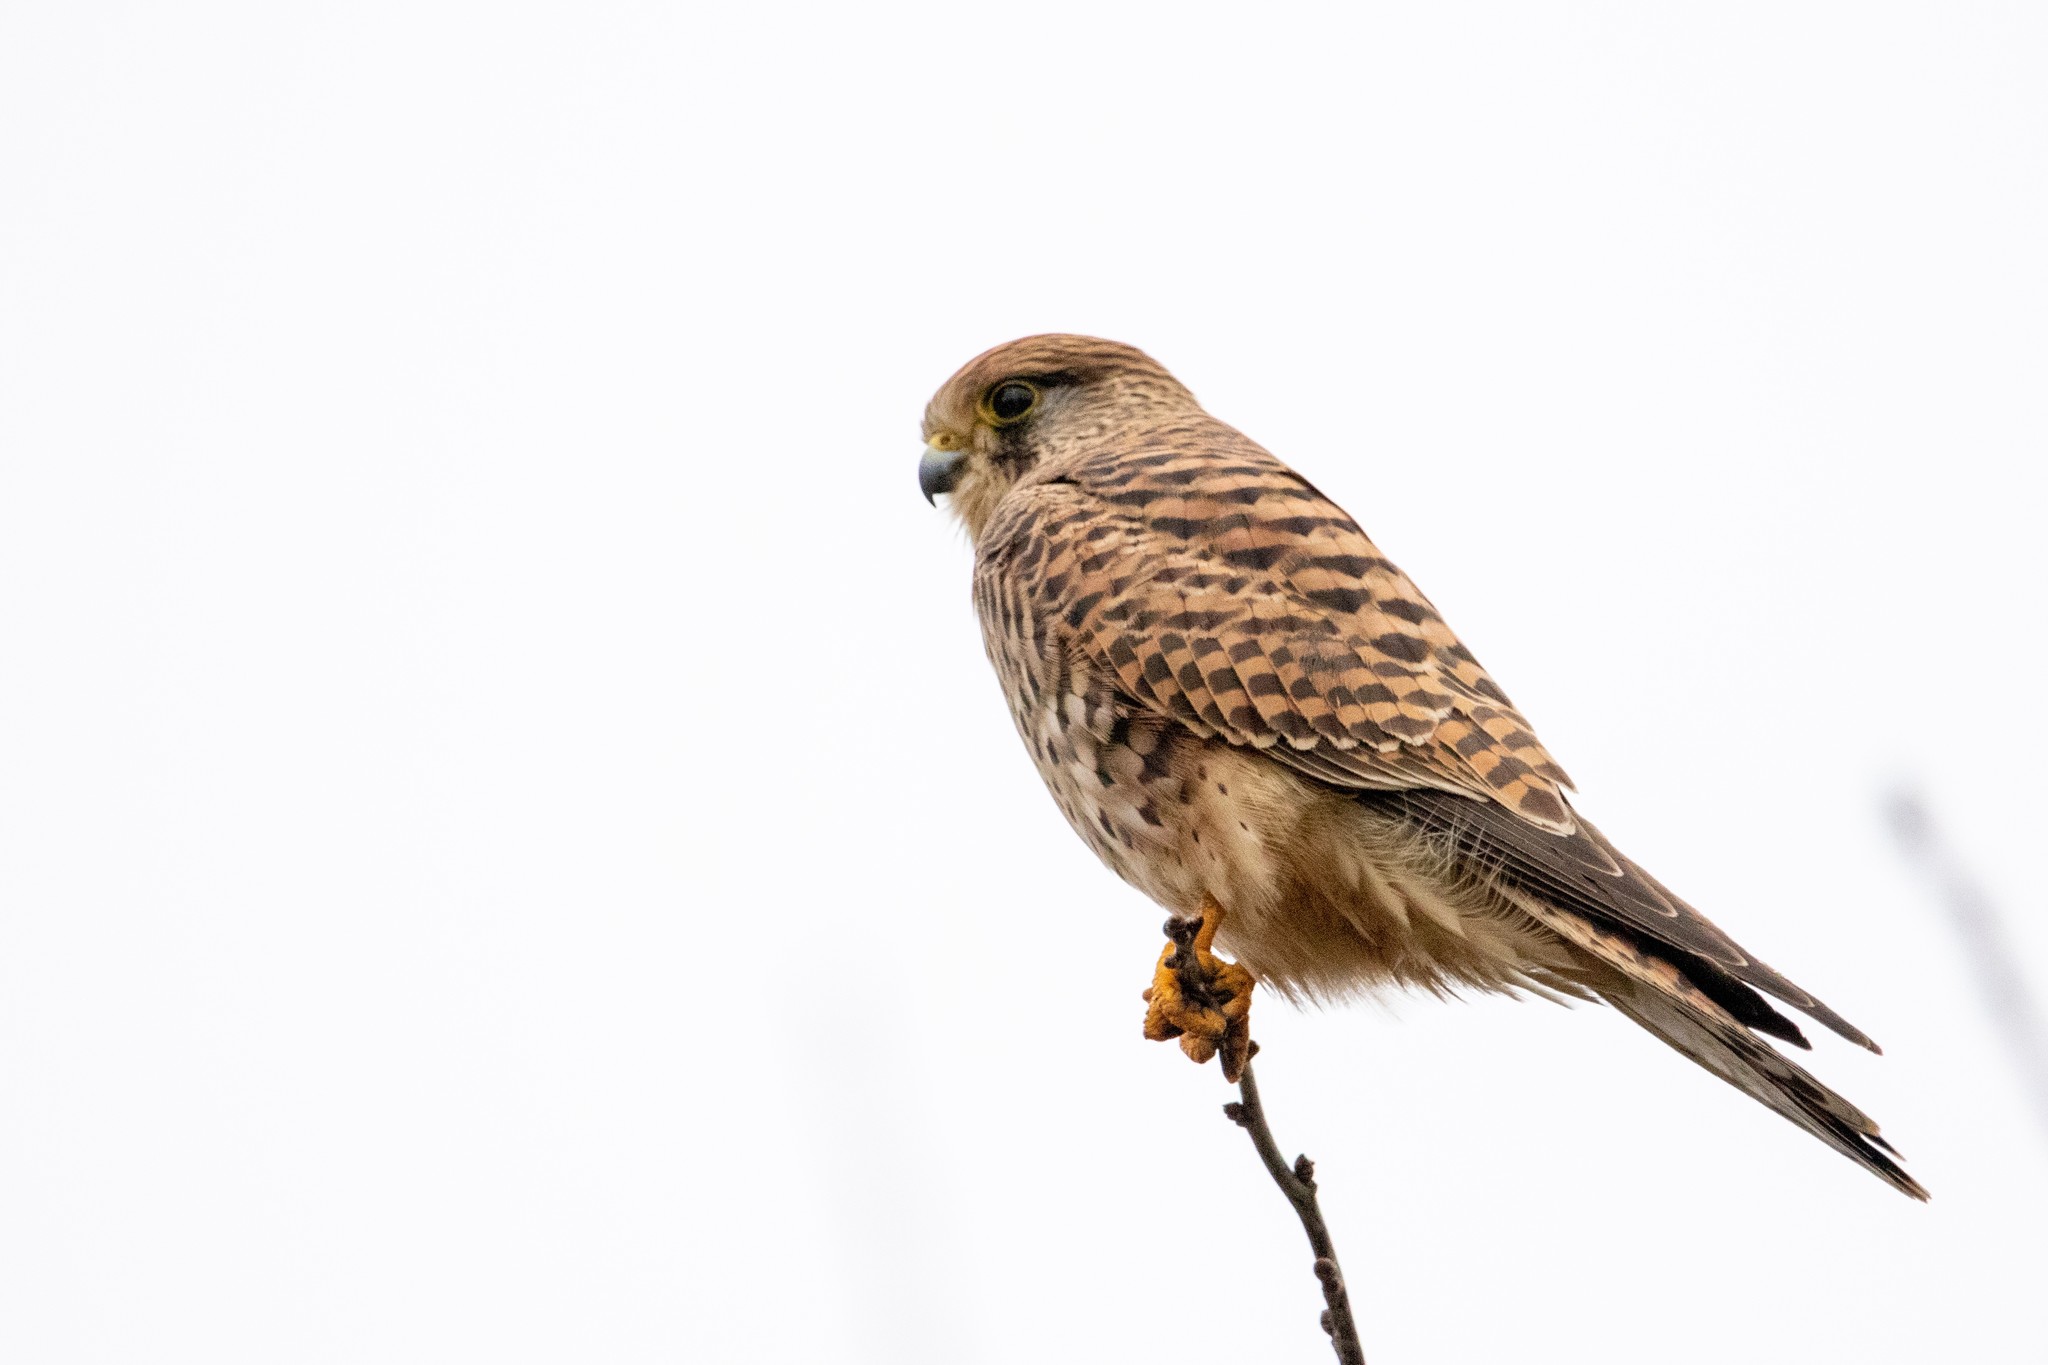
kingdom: Animalia
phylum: Chordata
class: Aves
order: Falconiformes
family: Falconidae
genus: Falco
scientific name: Falco tinnunculus
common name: Common kestrel
